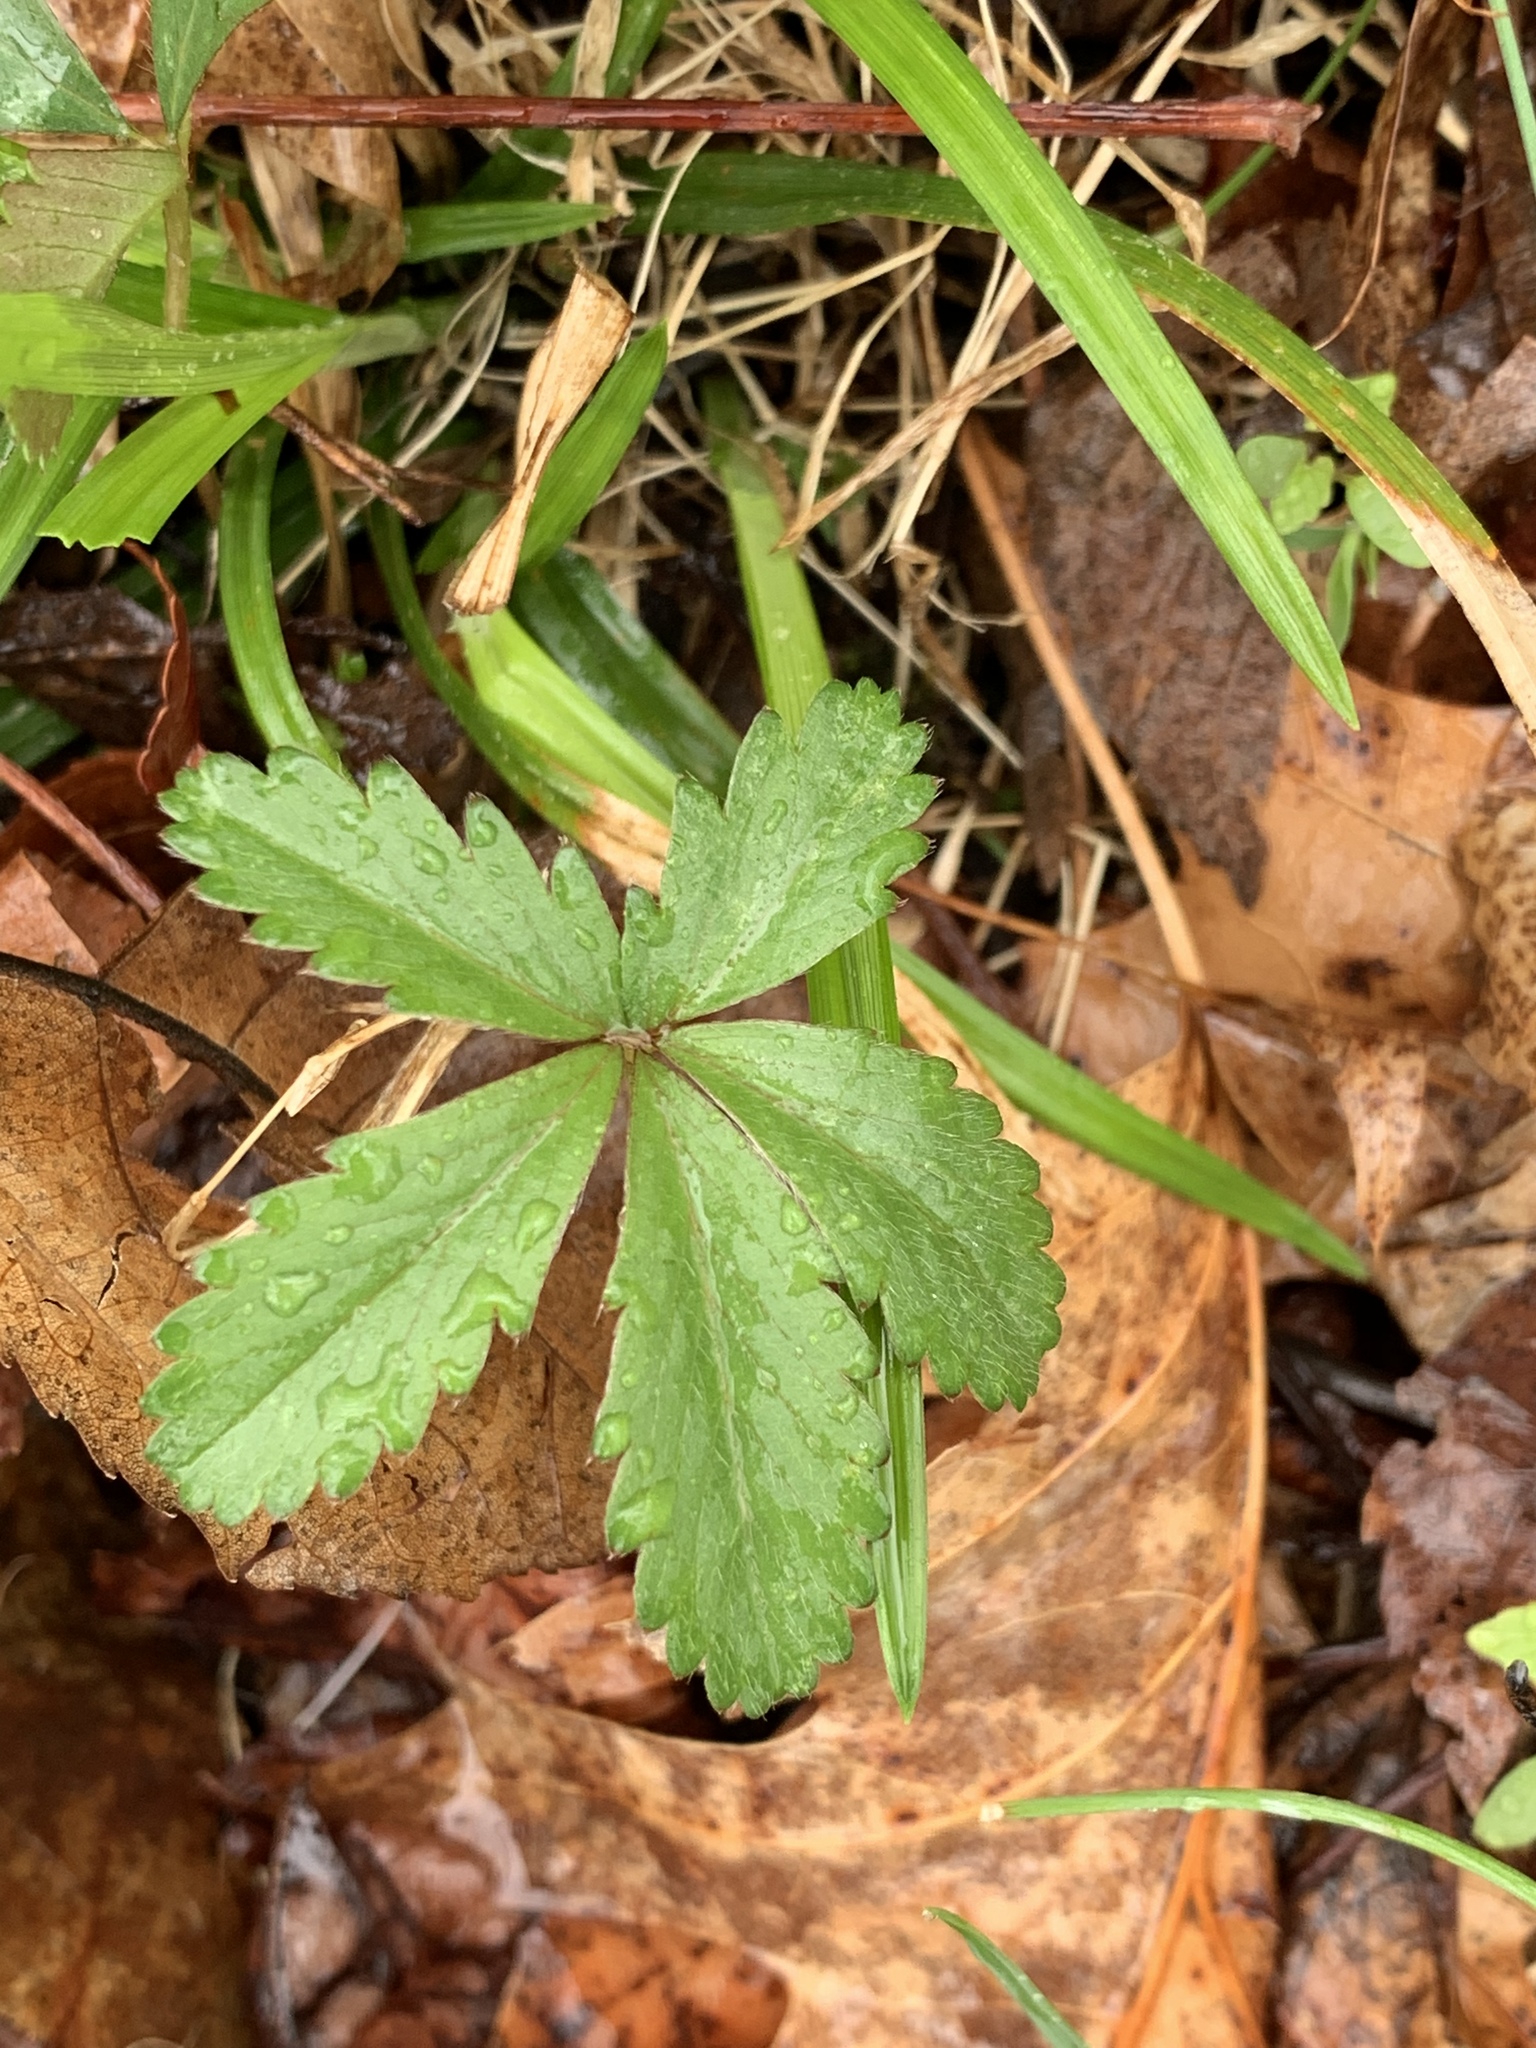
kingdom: Plantae
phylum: Tracheophyta
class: Magnoliopsida
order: Rosales
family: Rosaceae
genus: Potentilla
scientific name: Potentilla simplex
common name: Old field cinquefoil
